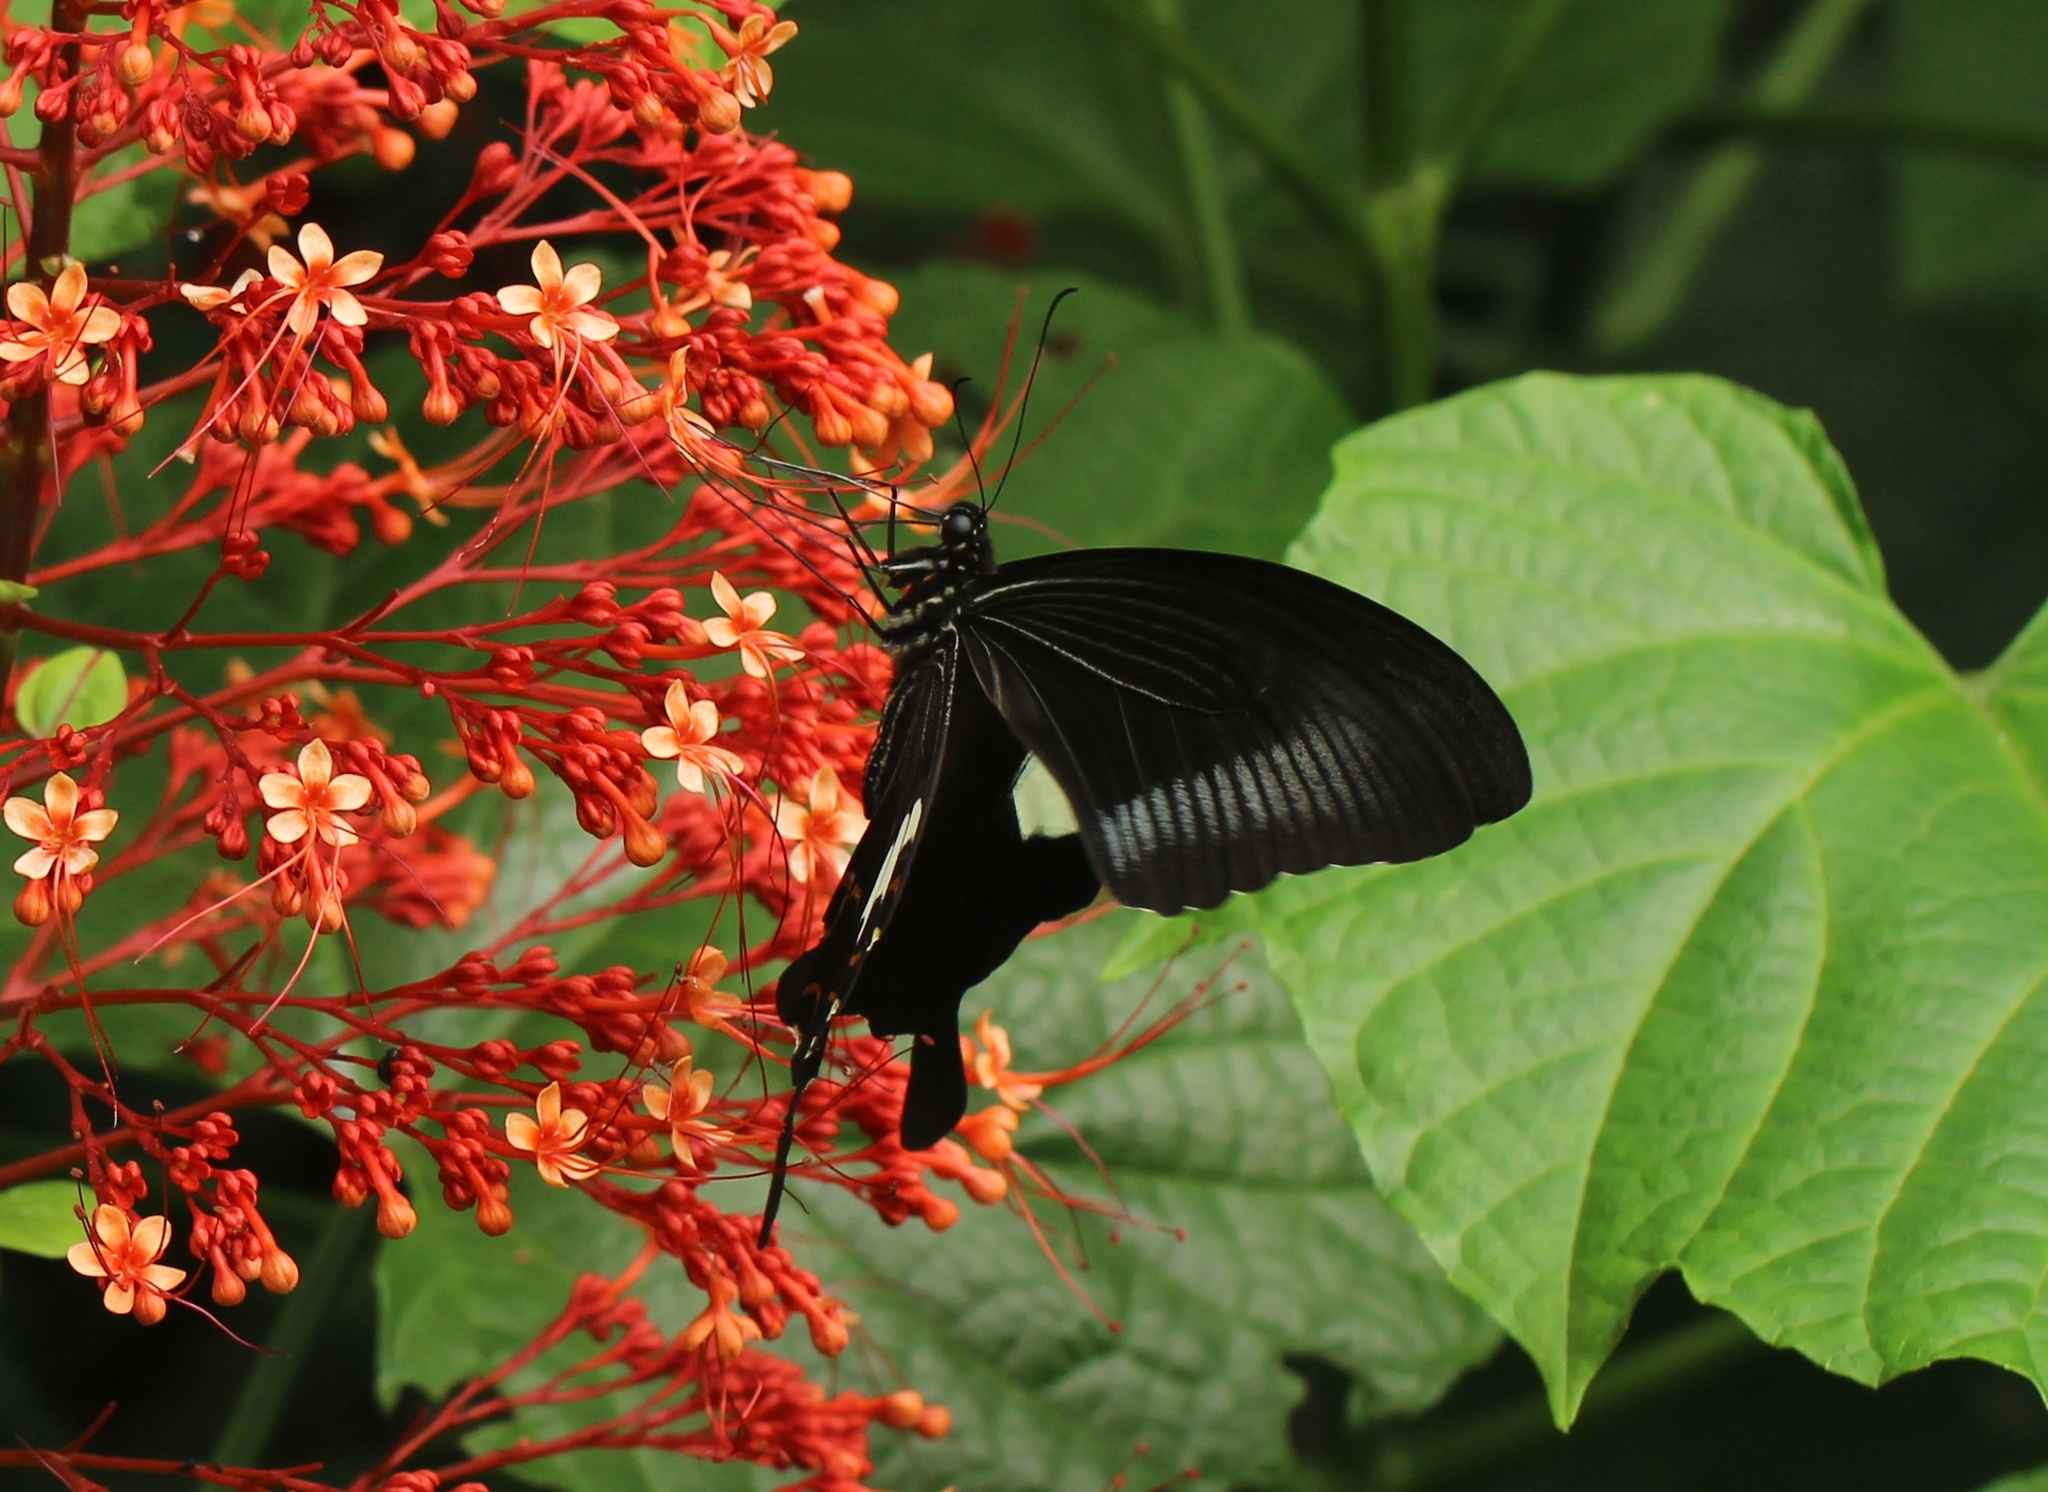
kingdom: Animalia
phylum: Arthropoda
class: Insecta
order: Lepidoptera
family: Papilionidae
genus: Papilio
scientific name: Papilio helenus
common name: Red helen
